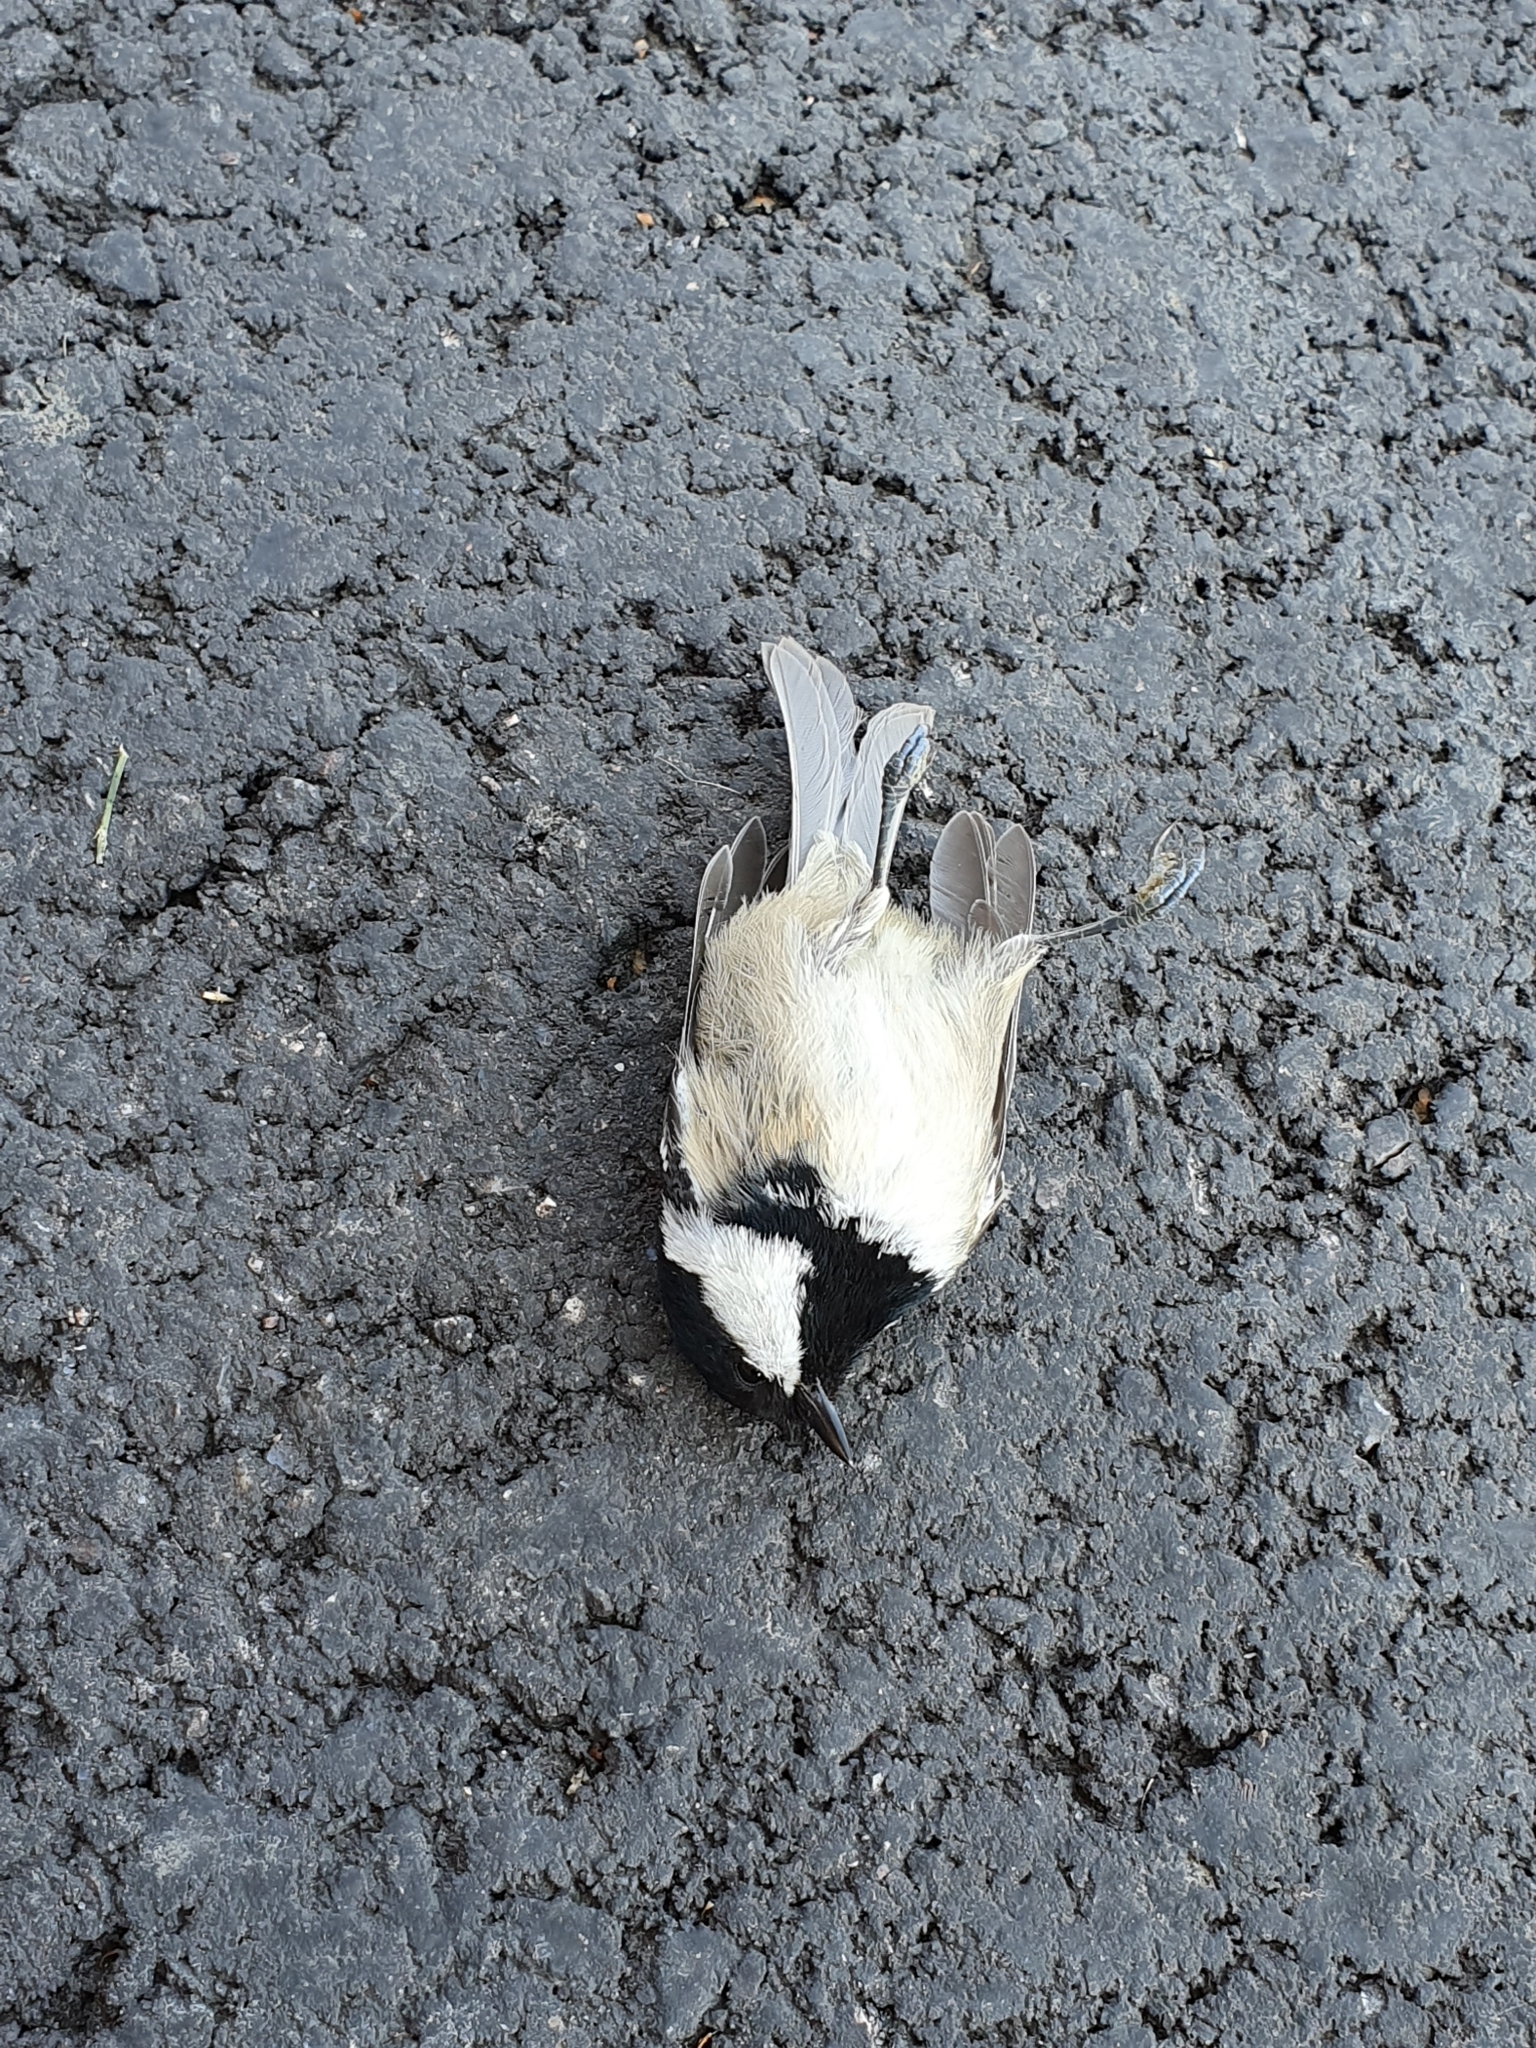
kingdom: Animalia
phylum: Chordata
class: Aves
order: Passeriformes
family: Paridae
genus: Periparus
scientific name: Periparus ater
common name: Coal tit
